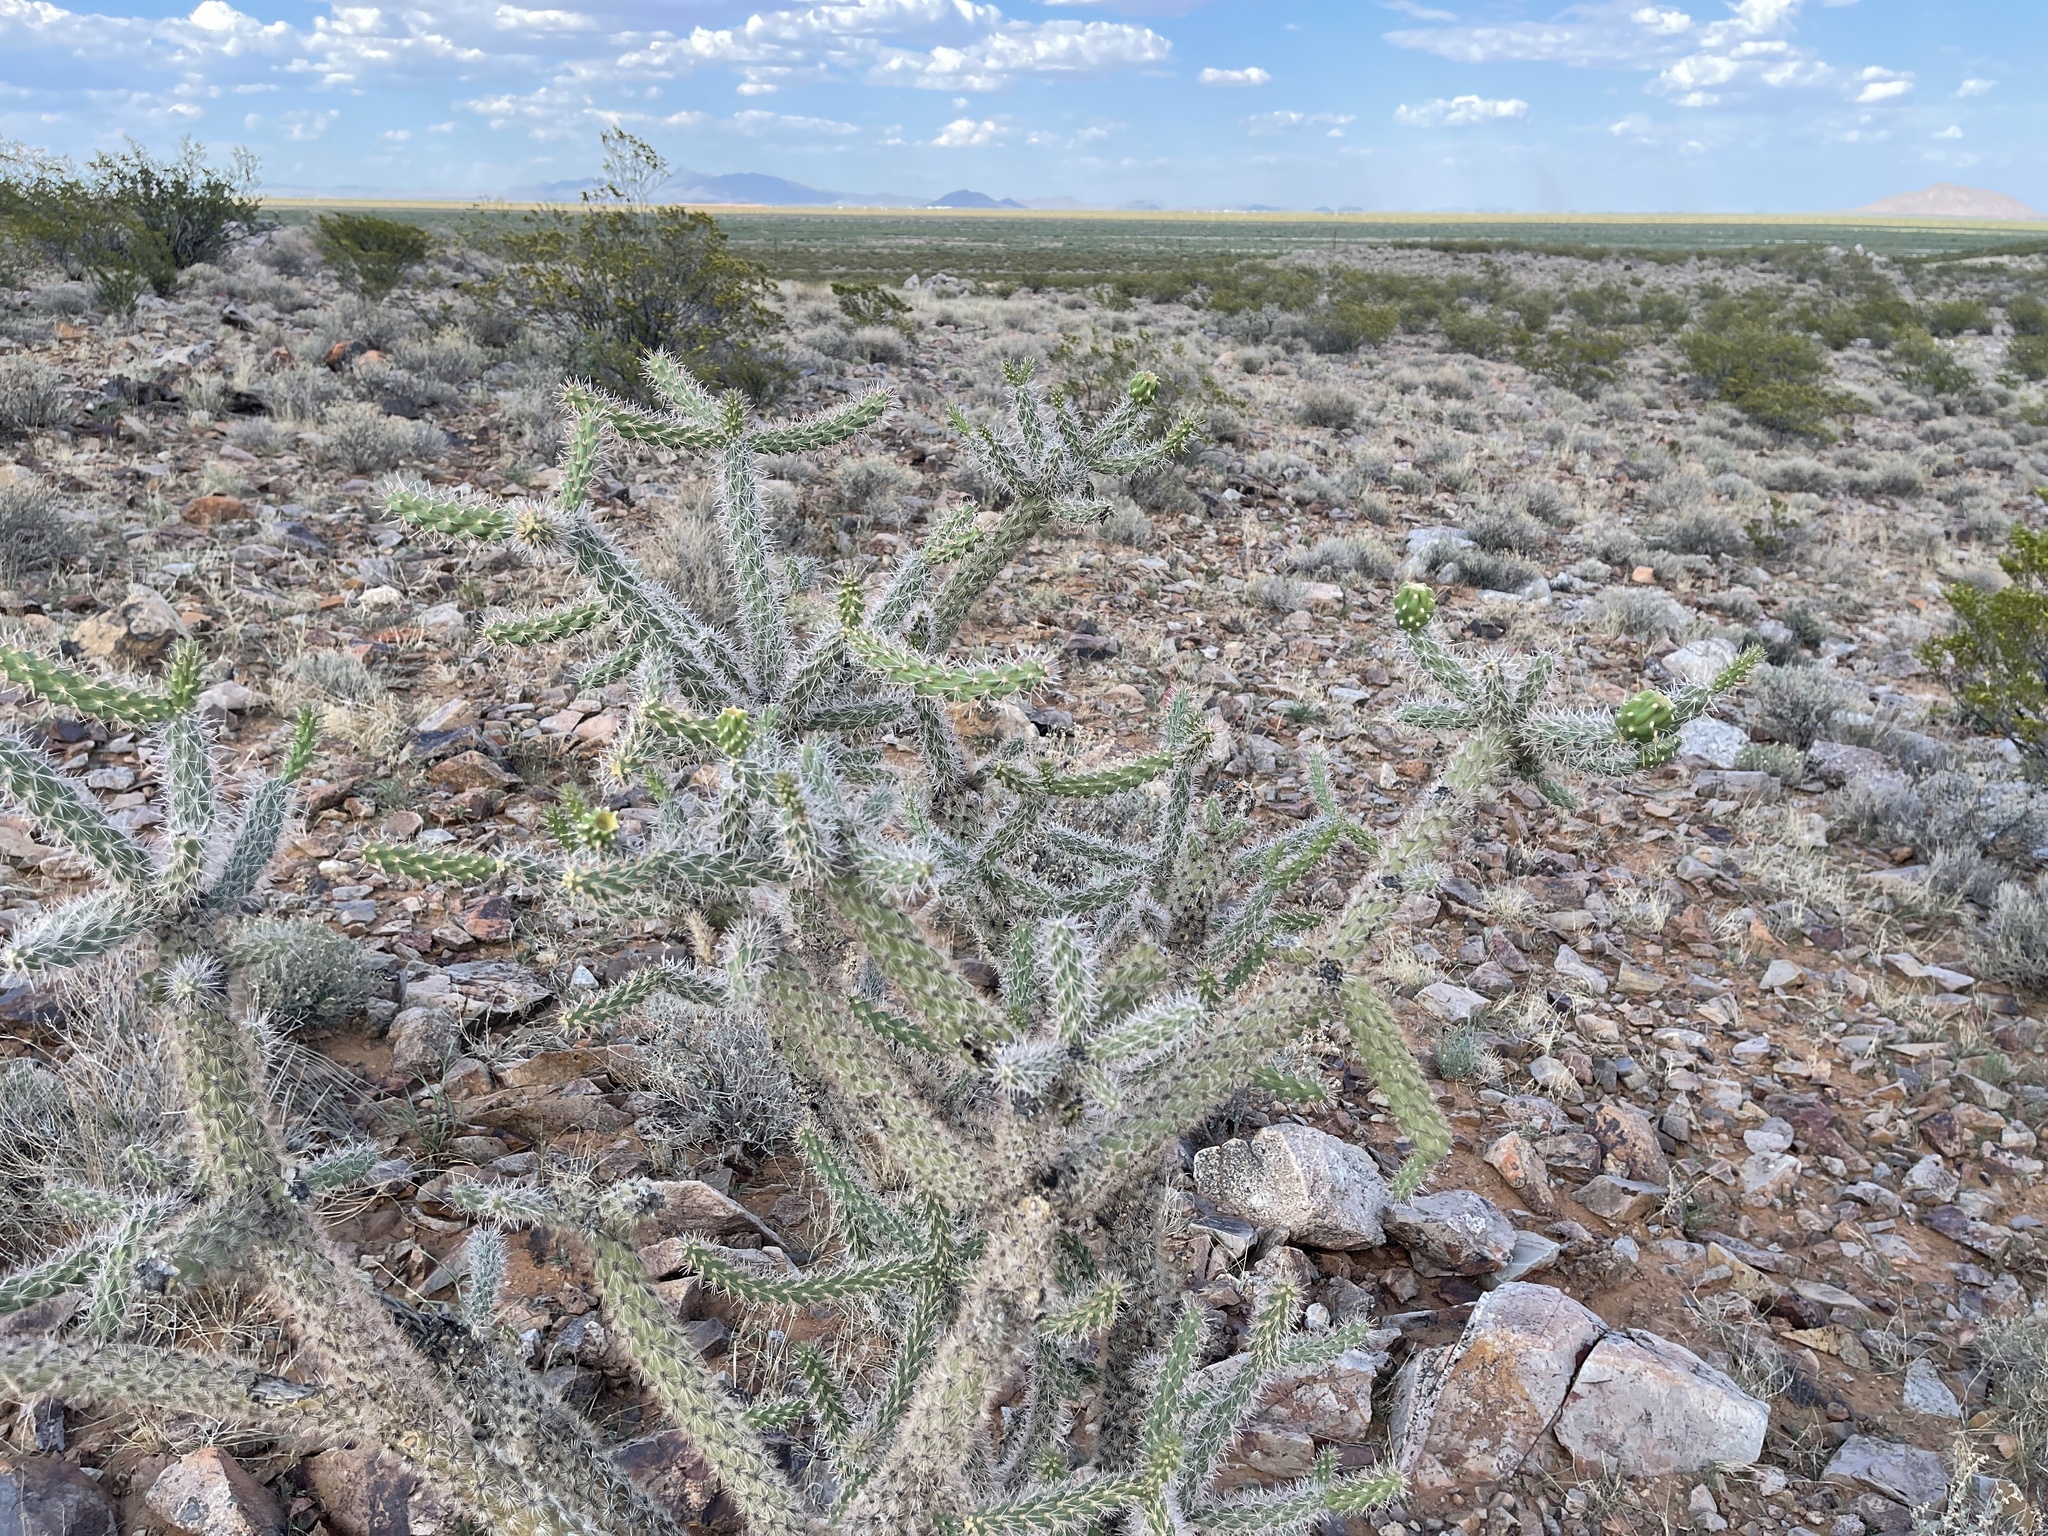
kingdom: Plantae
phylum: Tracheophyta
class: Magnoliopsida
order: Caryophyllales
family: Cactaceae
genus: Cylindropuntia
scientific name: Cylindropuntia imbricata
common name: Candelabrum cactus
